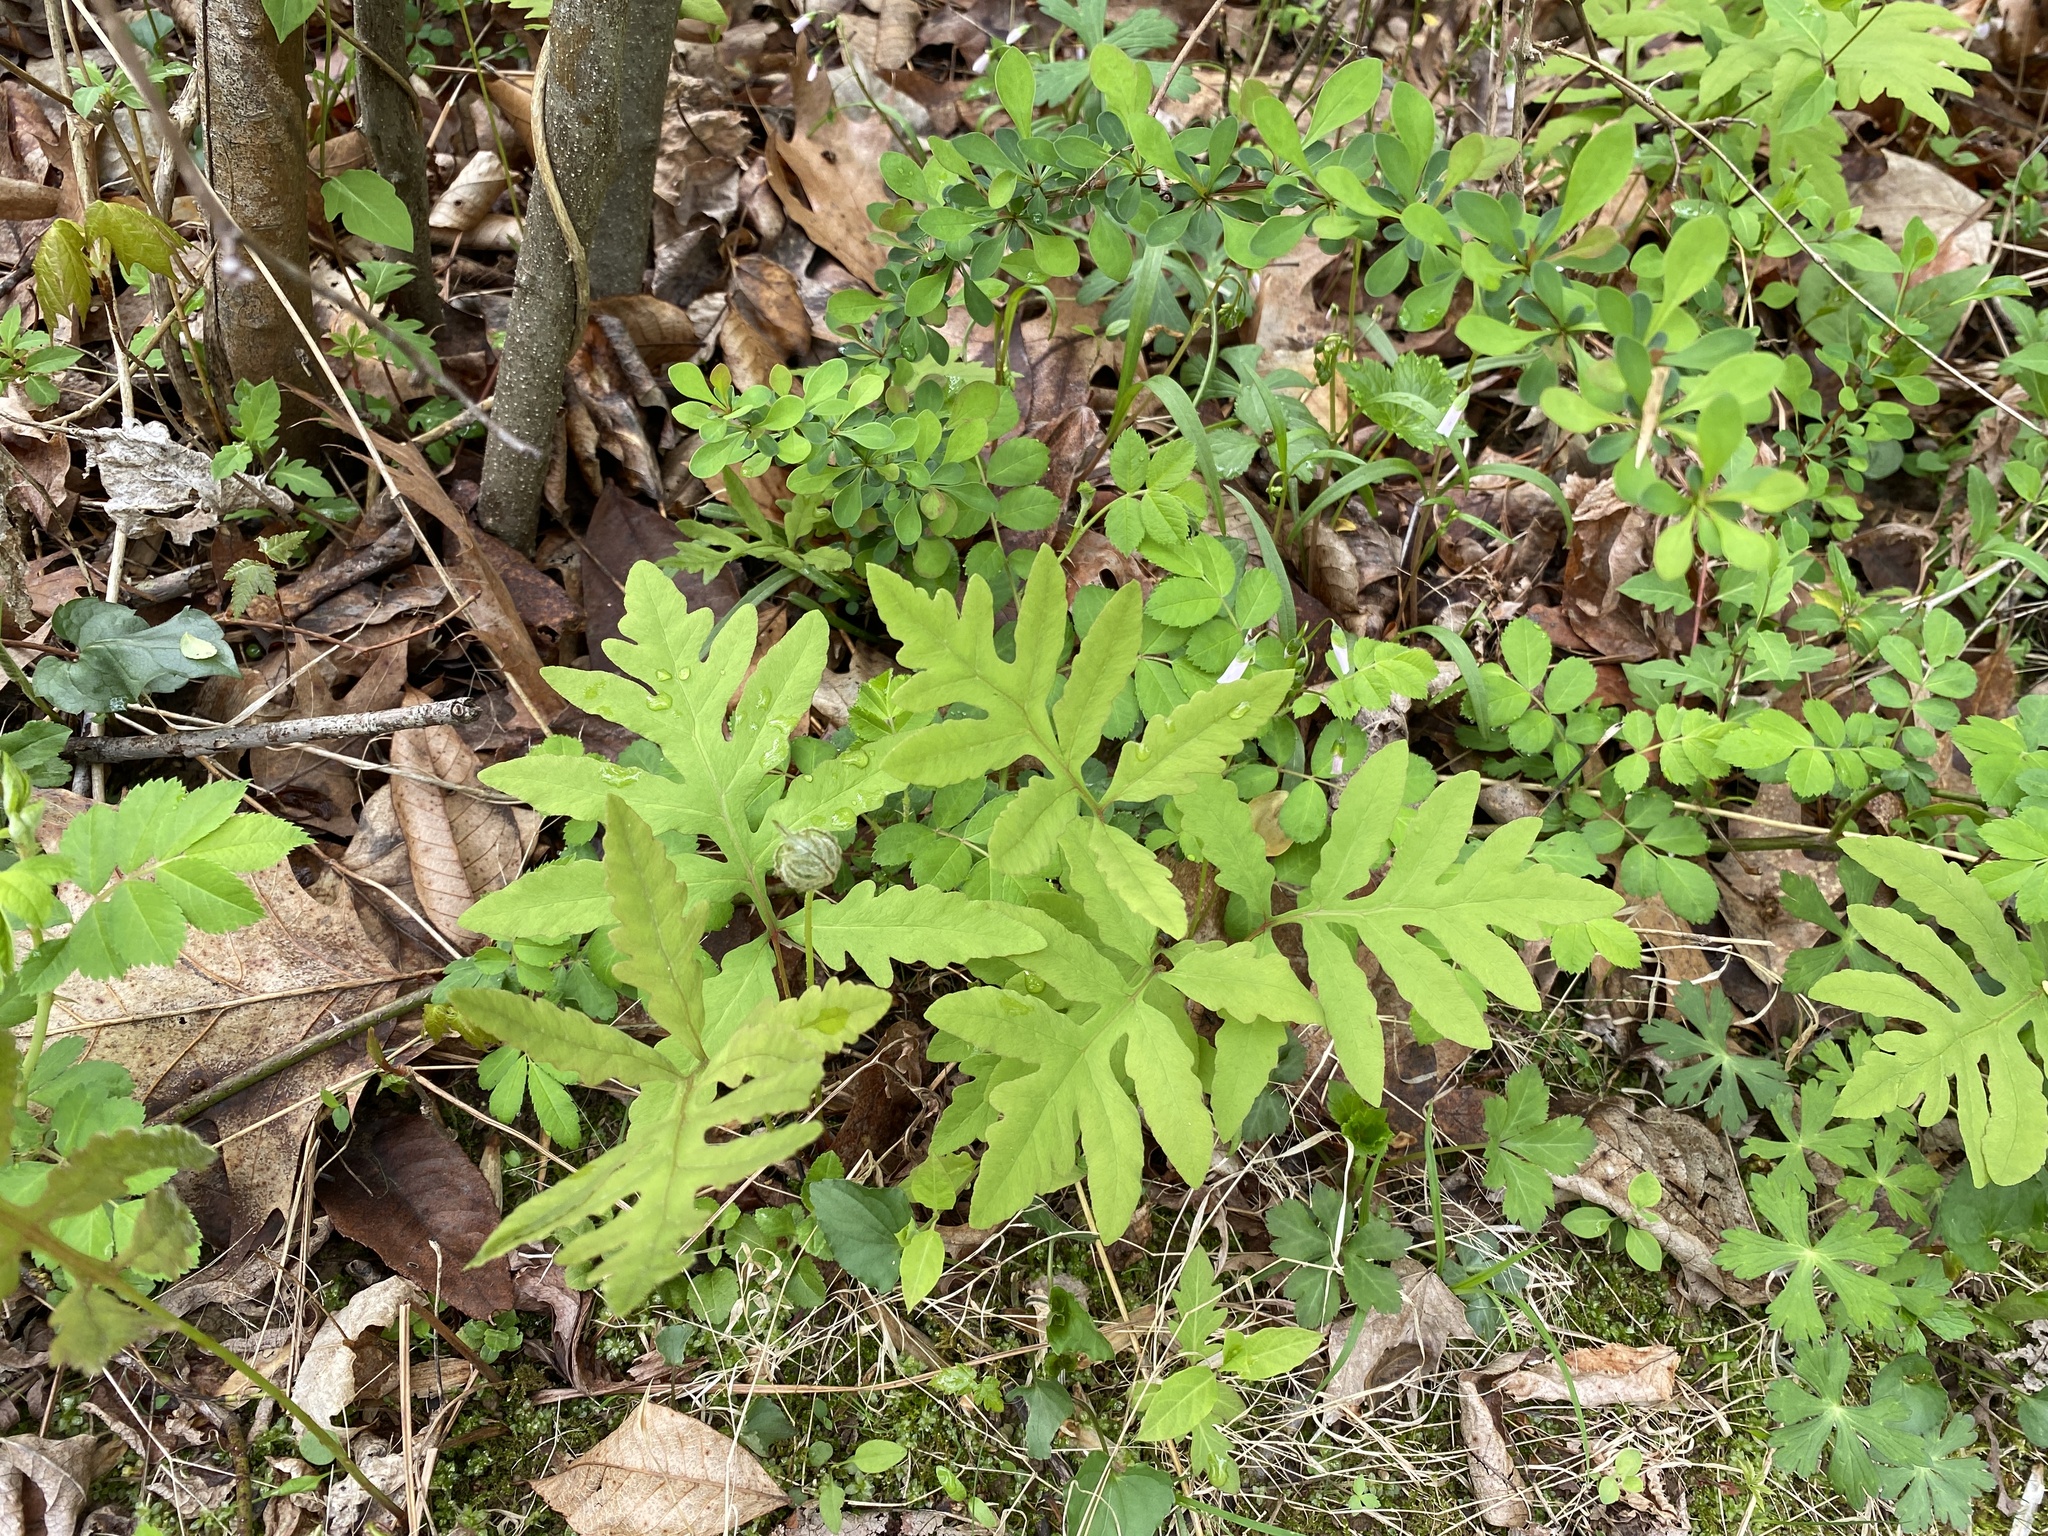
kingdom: Plantae
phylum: Tracheophyta
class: Polypodiopsida
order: Polypodiales
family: Onocleaceae
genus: Onoclea
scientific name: Onoclea sensibilis
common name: Sensitive fern
